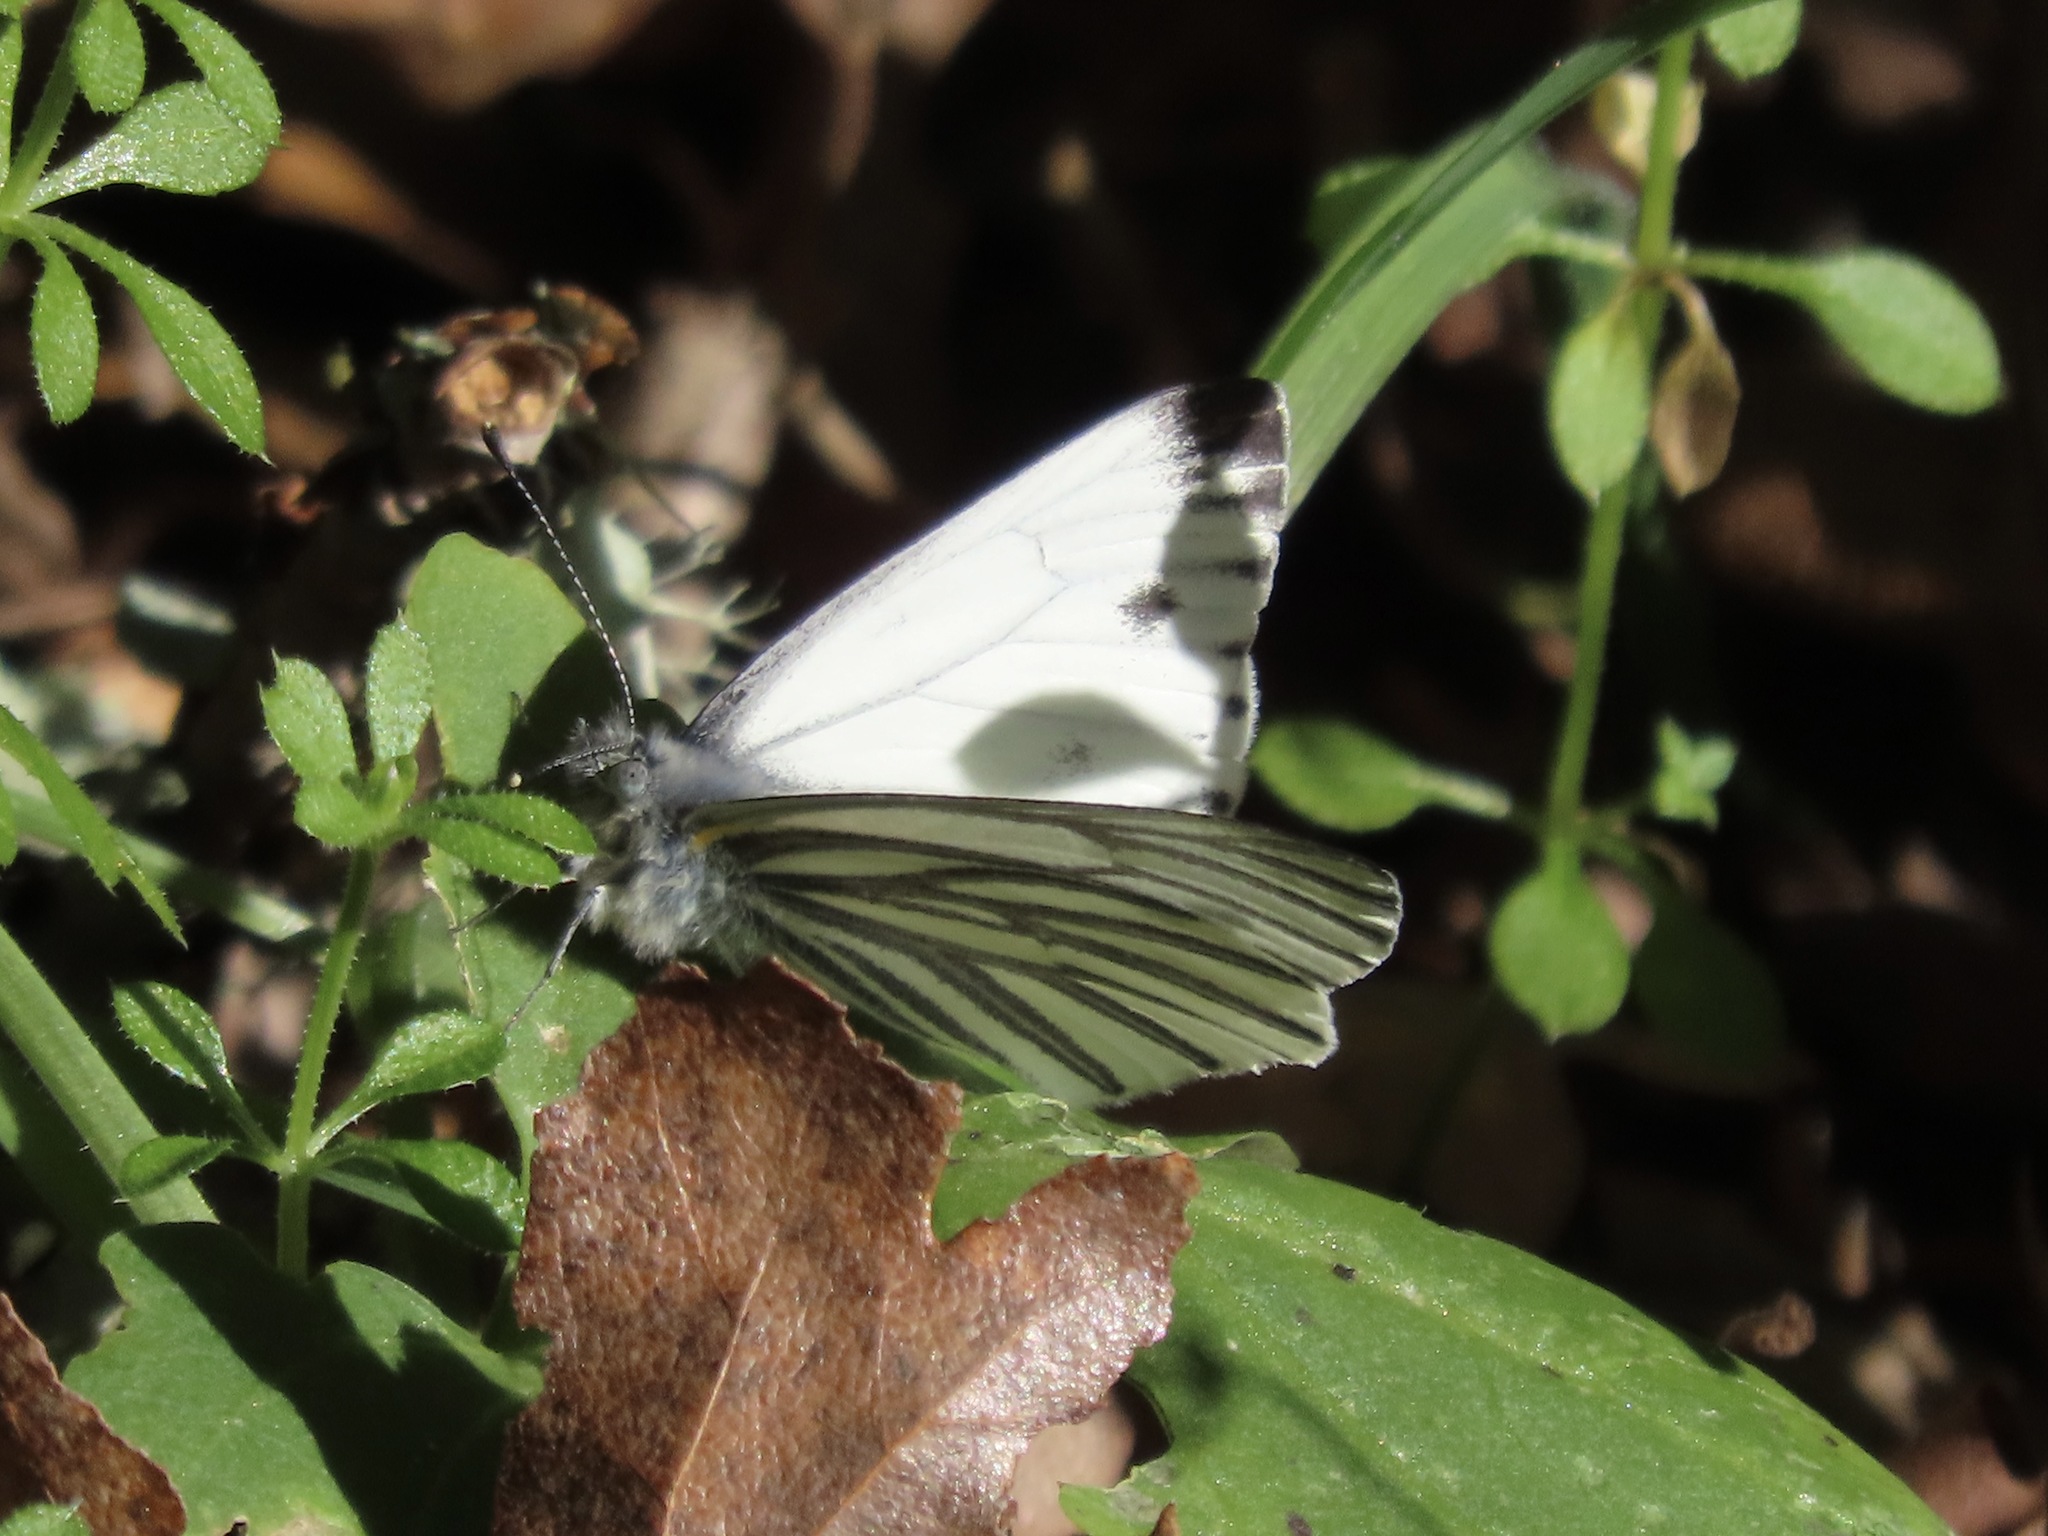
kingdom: Animalia
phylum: Arthropoda
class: Insecta
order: Lepidoptera
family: Pieridae
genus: Pieris
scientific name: Pieris marginalis
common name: Margined white
